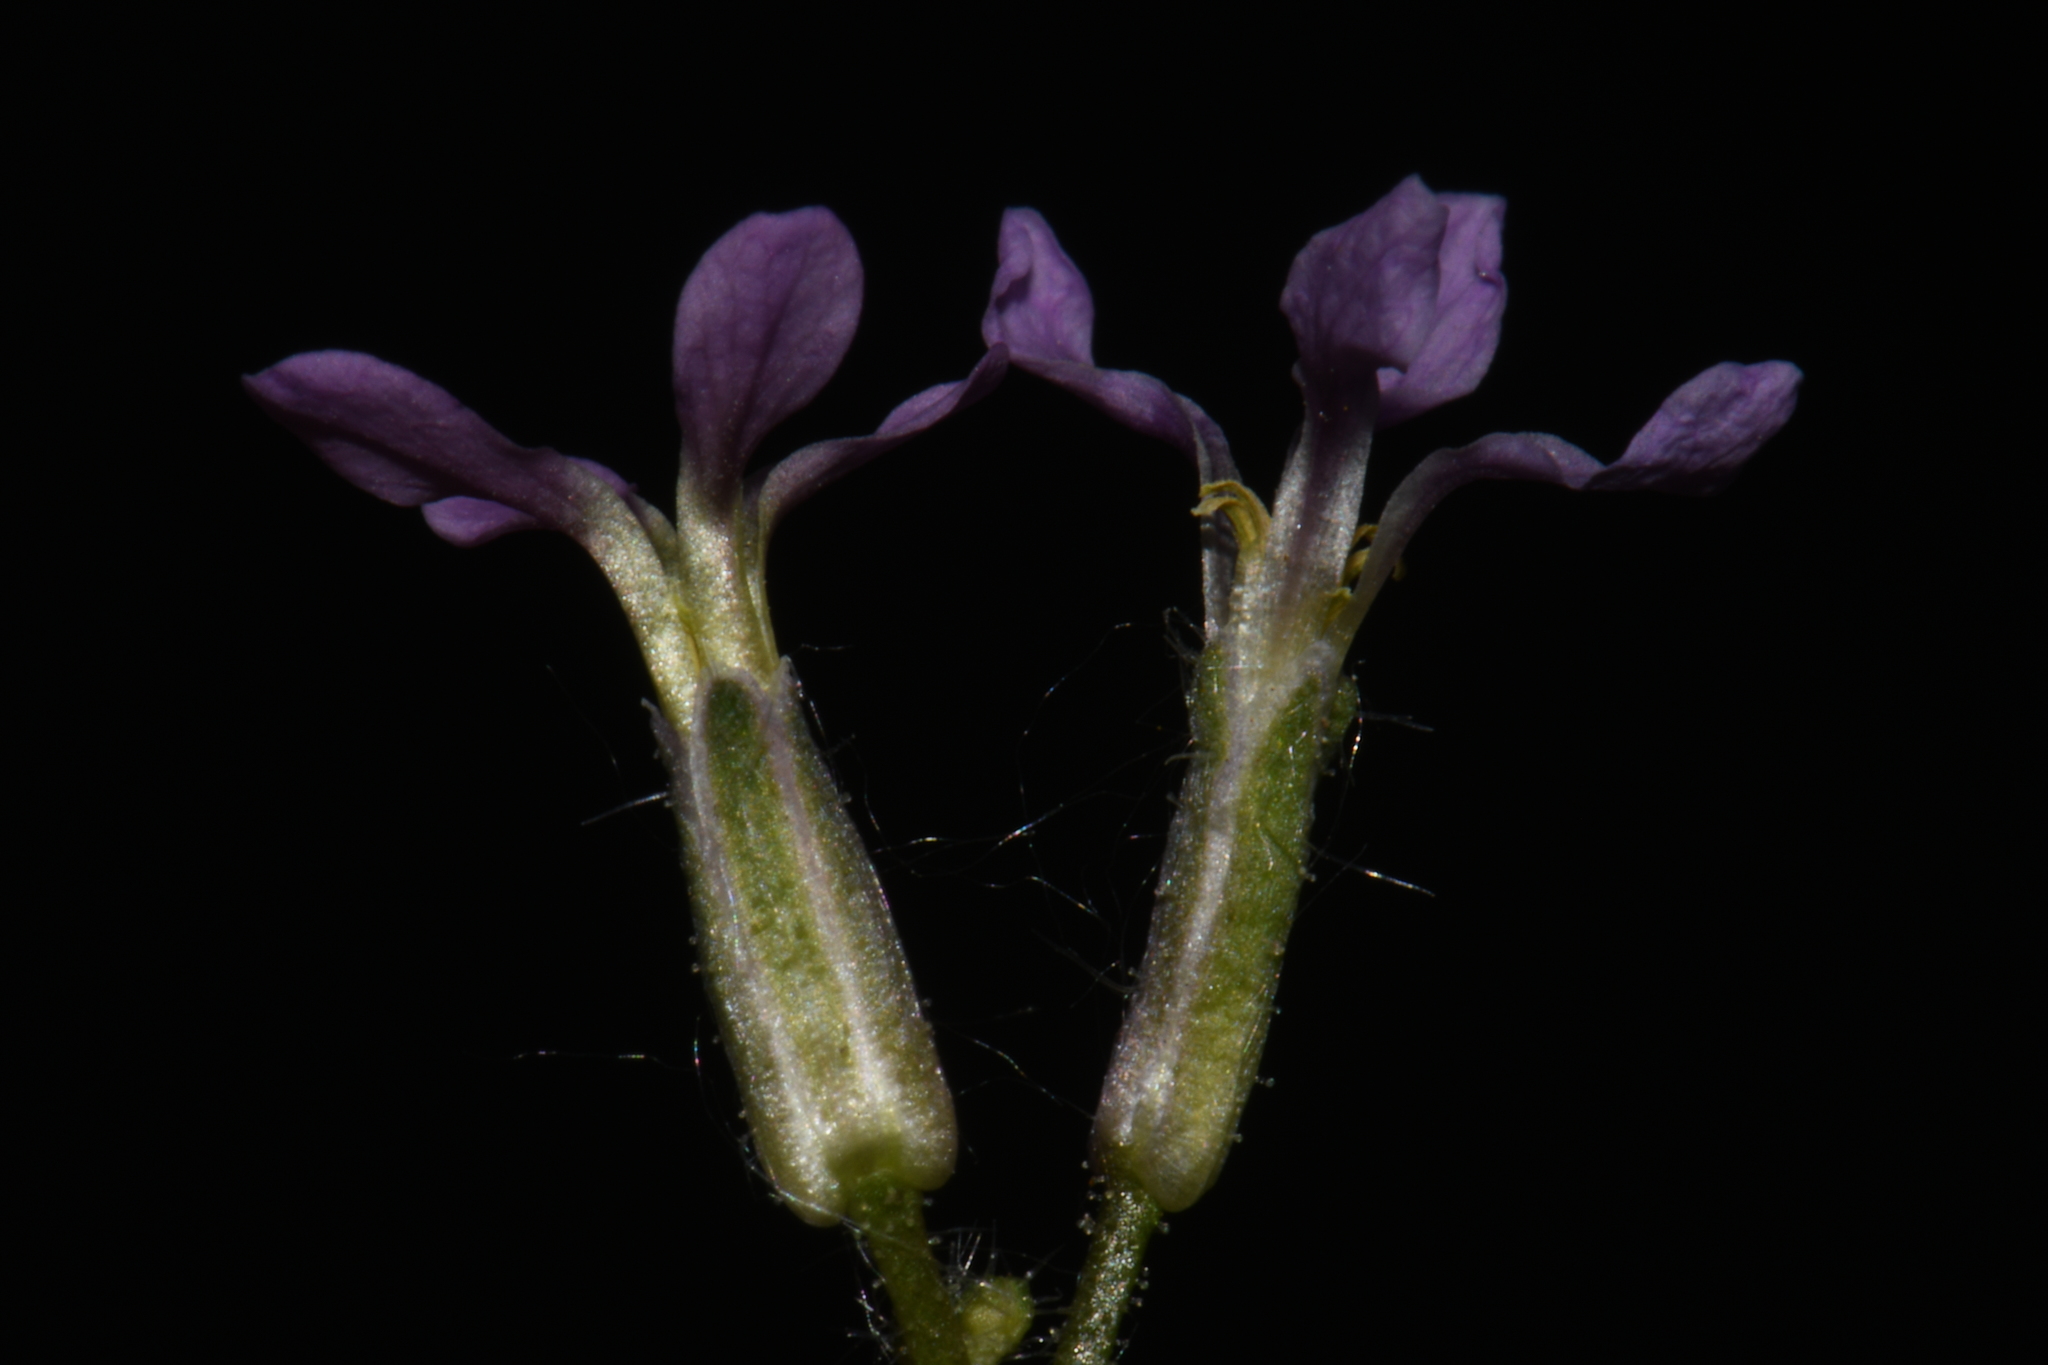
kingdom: Plantae
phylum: Tracheophyta
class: Magnoliopsida
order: Brassicales
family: Brassicaceae
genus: Chorispora
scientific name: Chorispora tenella
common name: Crossflower
